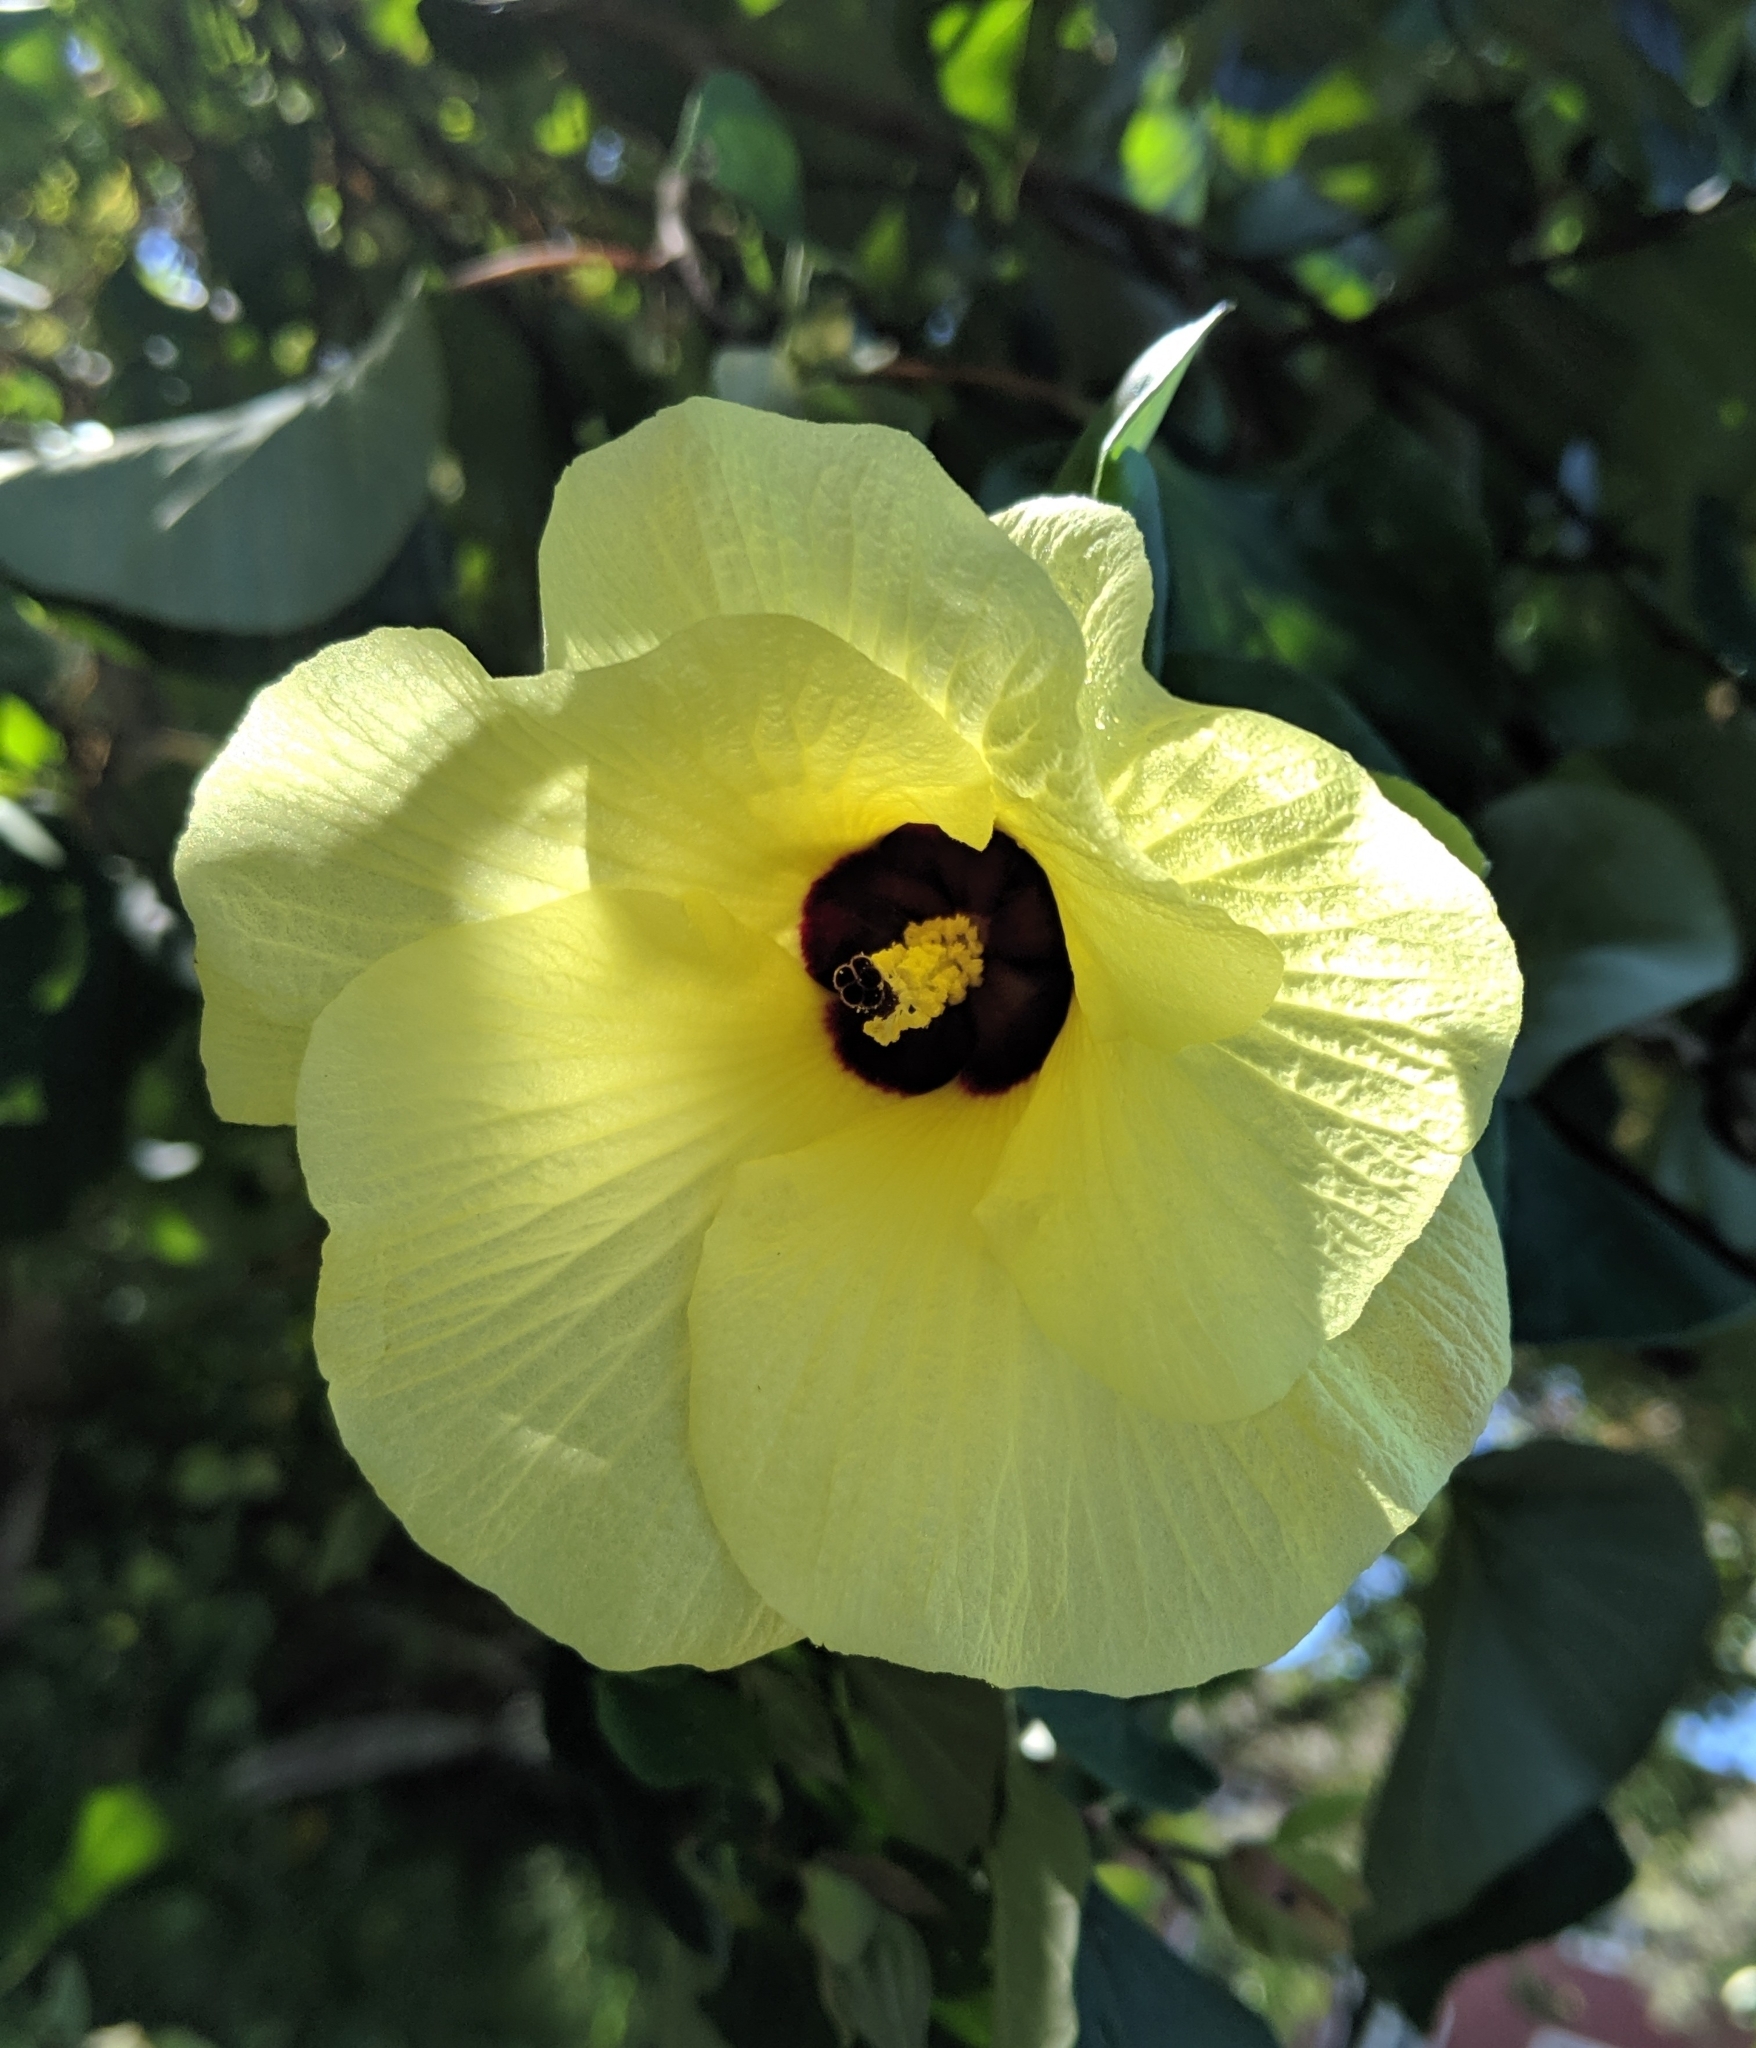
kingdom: Plantae
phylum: Tracheophyta
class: Magnoliopsida
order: Malvales
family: Malvaceae
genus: Talipariti
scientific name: Talipariti tiliaceum
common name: Sea hibiscus
